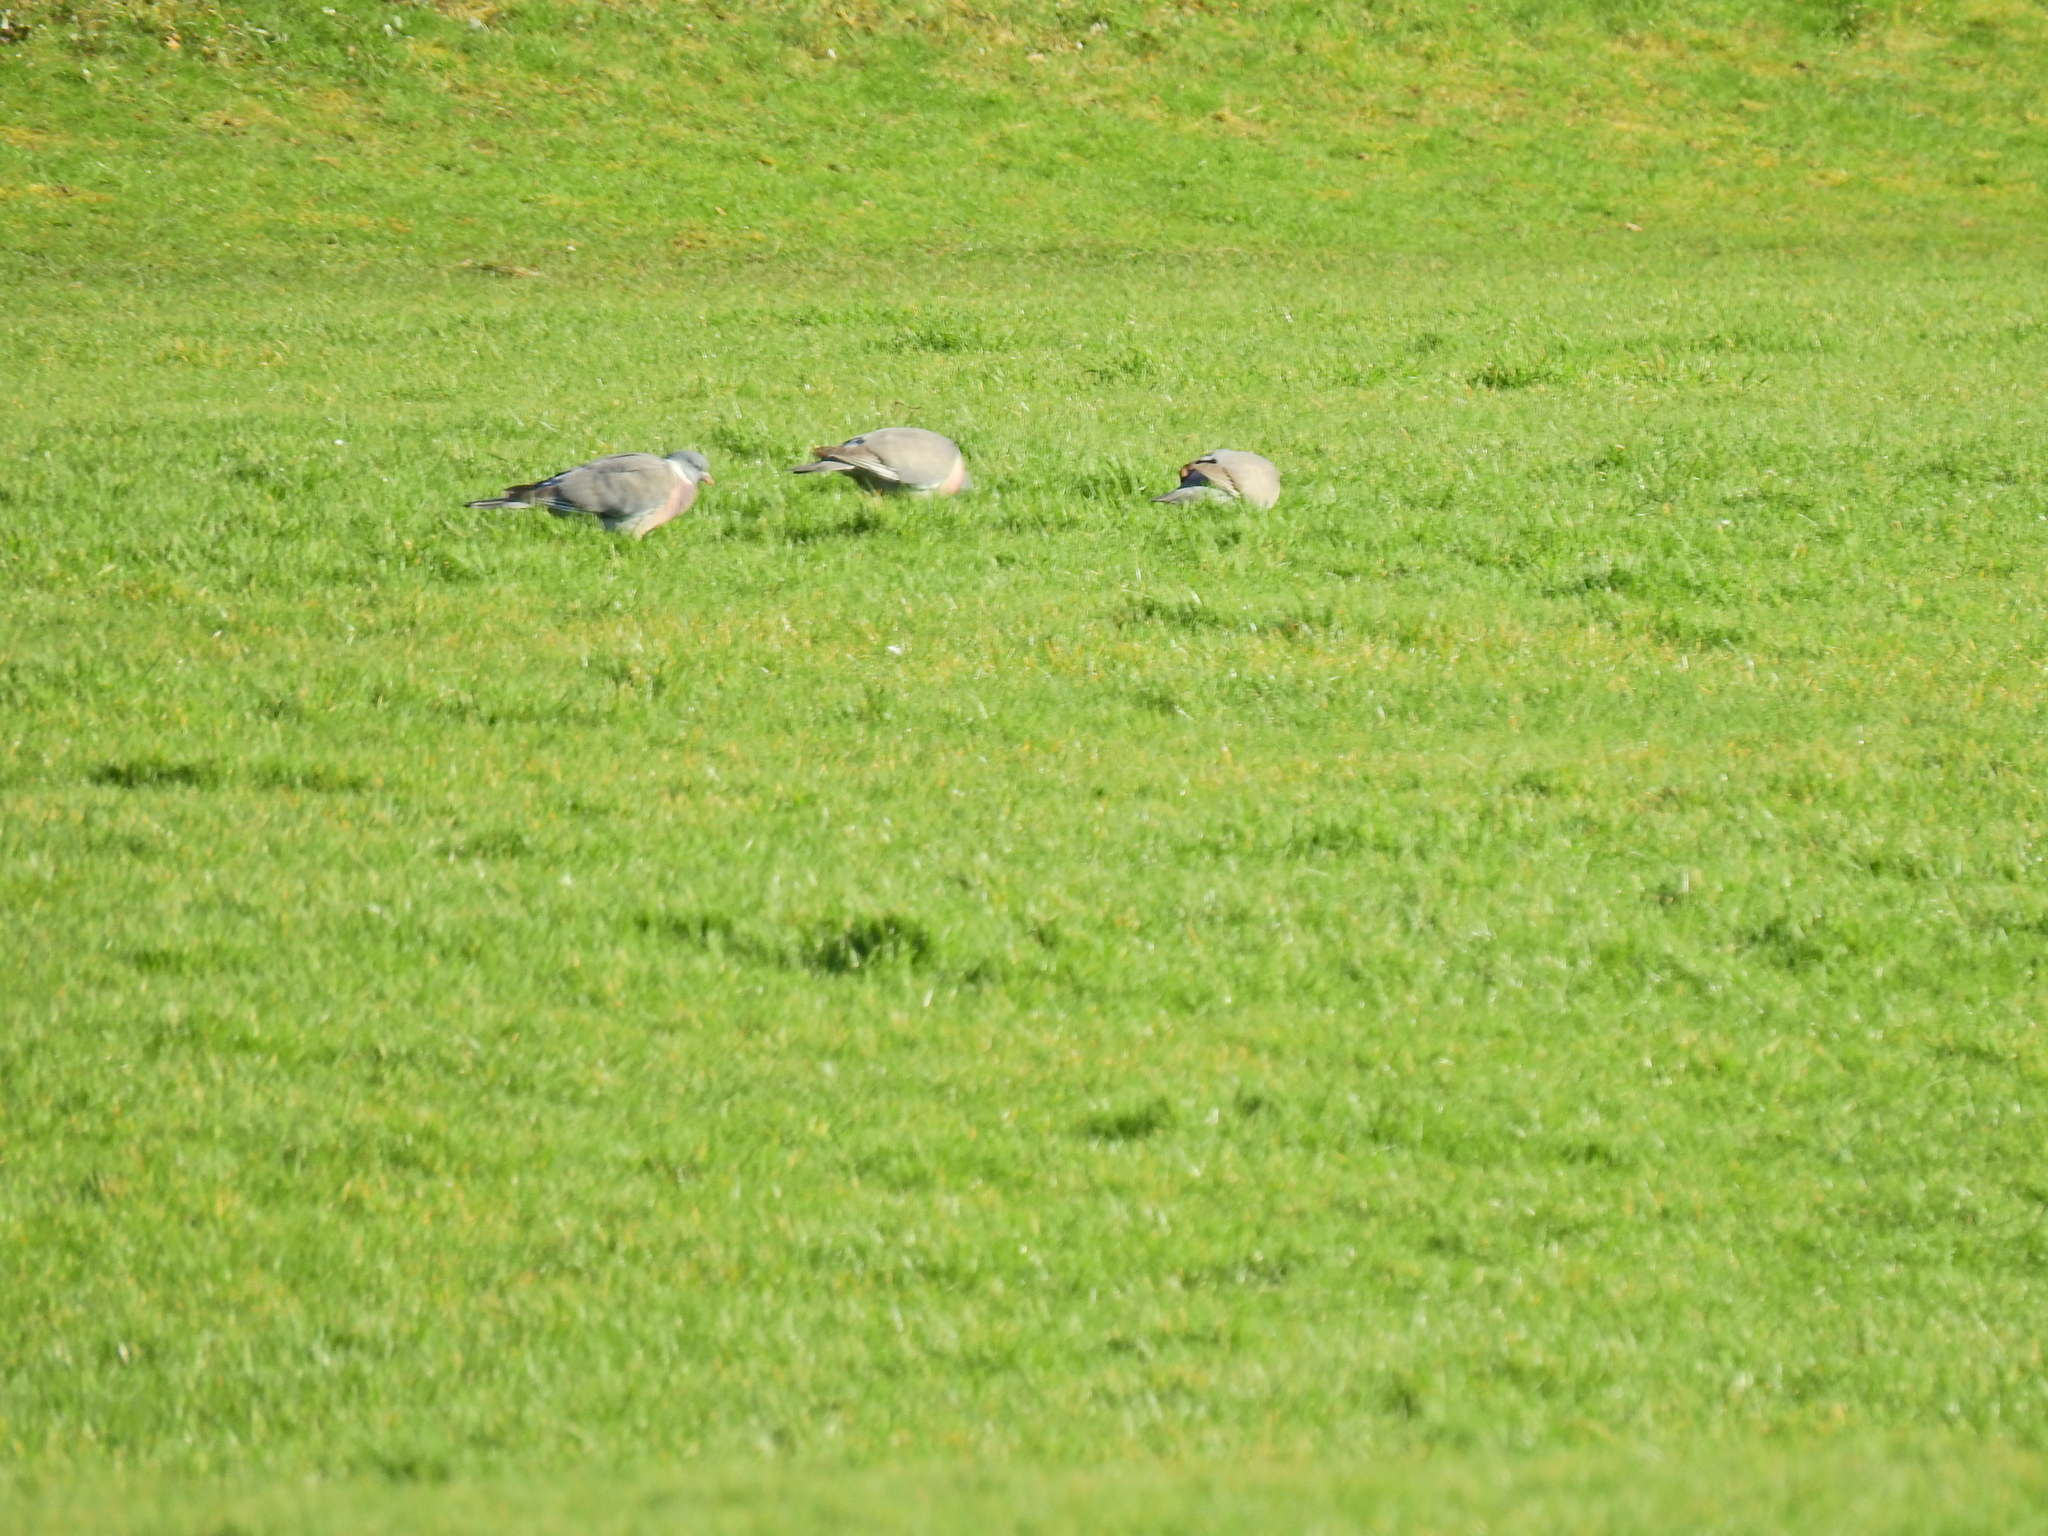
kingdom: Animalia
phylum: Chordata
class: Aves
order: Columbiformes
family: Columbidae
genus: Columba
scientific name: Columba palumbus
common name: Common wood pigeon
